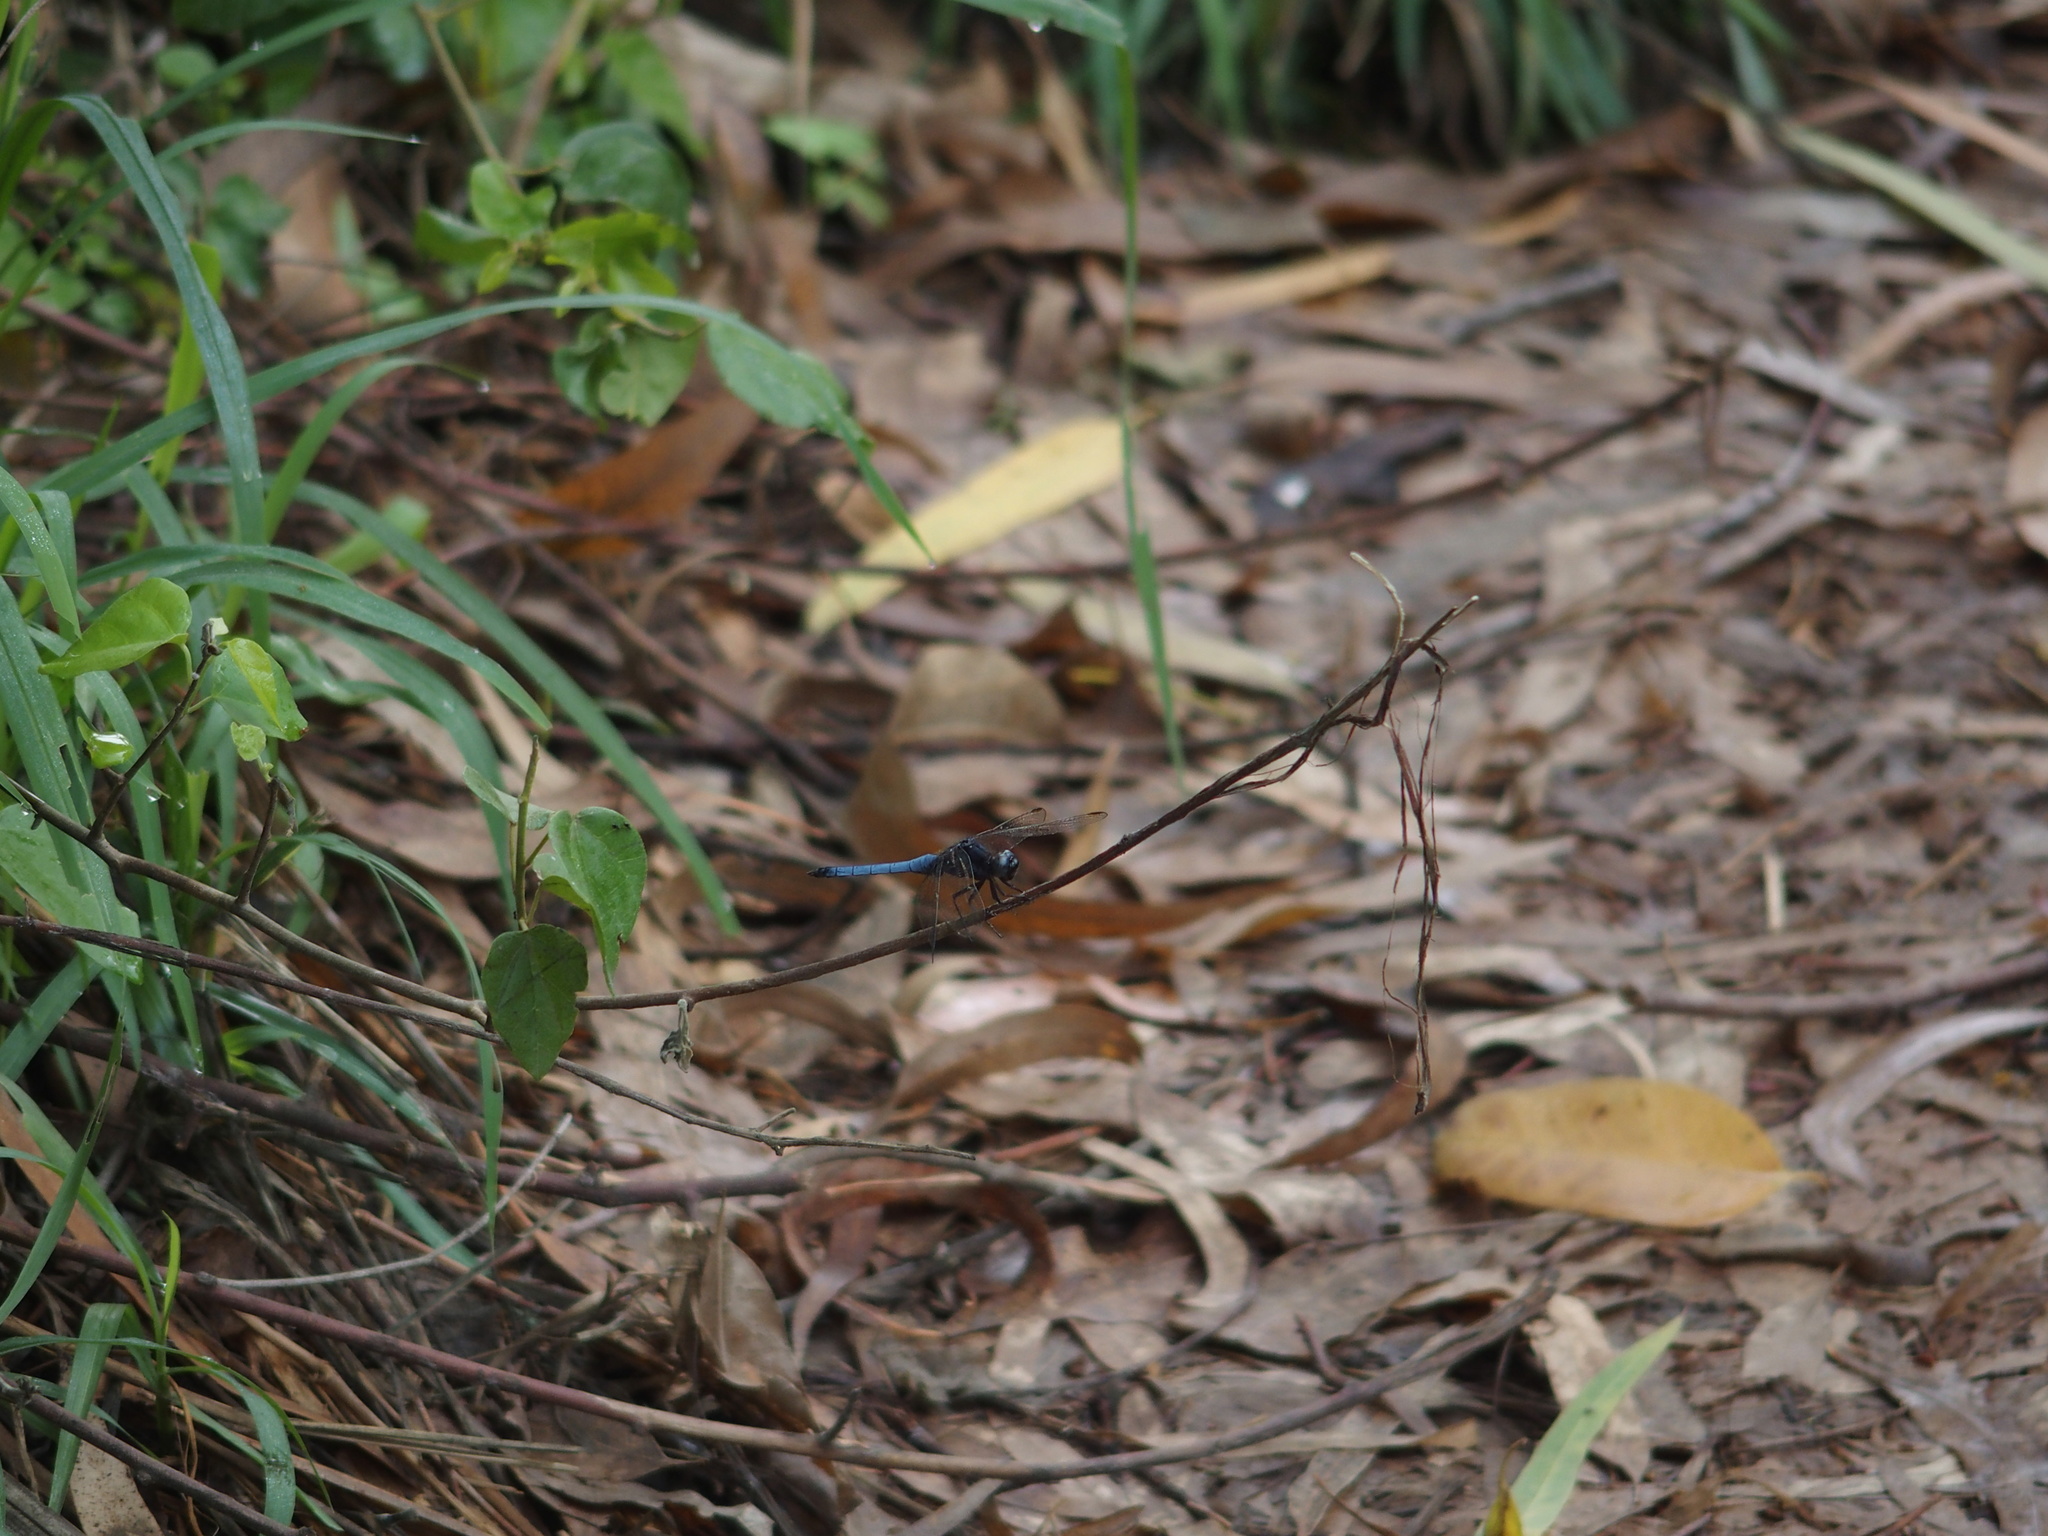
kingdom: Animalia
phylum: Arthropoda
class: Insecta
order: Odonata
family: Libellulidae
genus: Orthetrum
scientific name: Orthetrum glaucum
